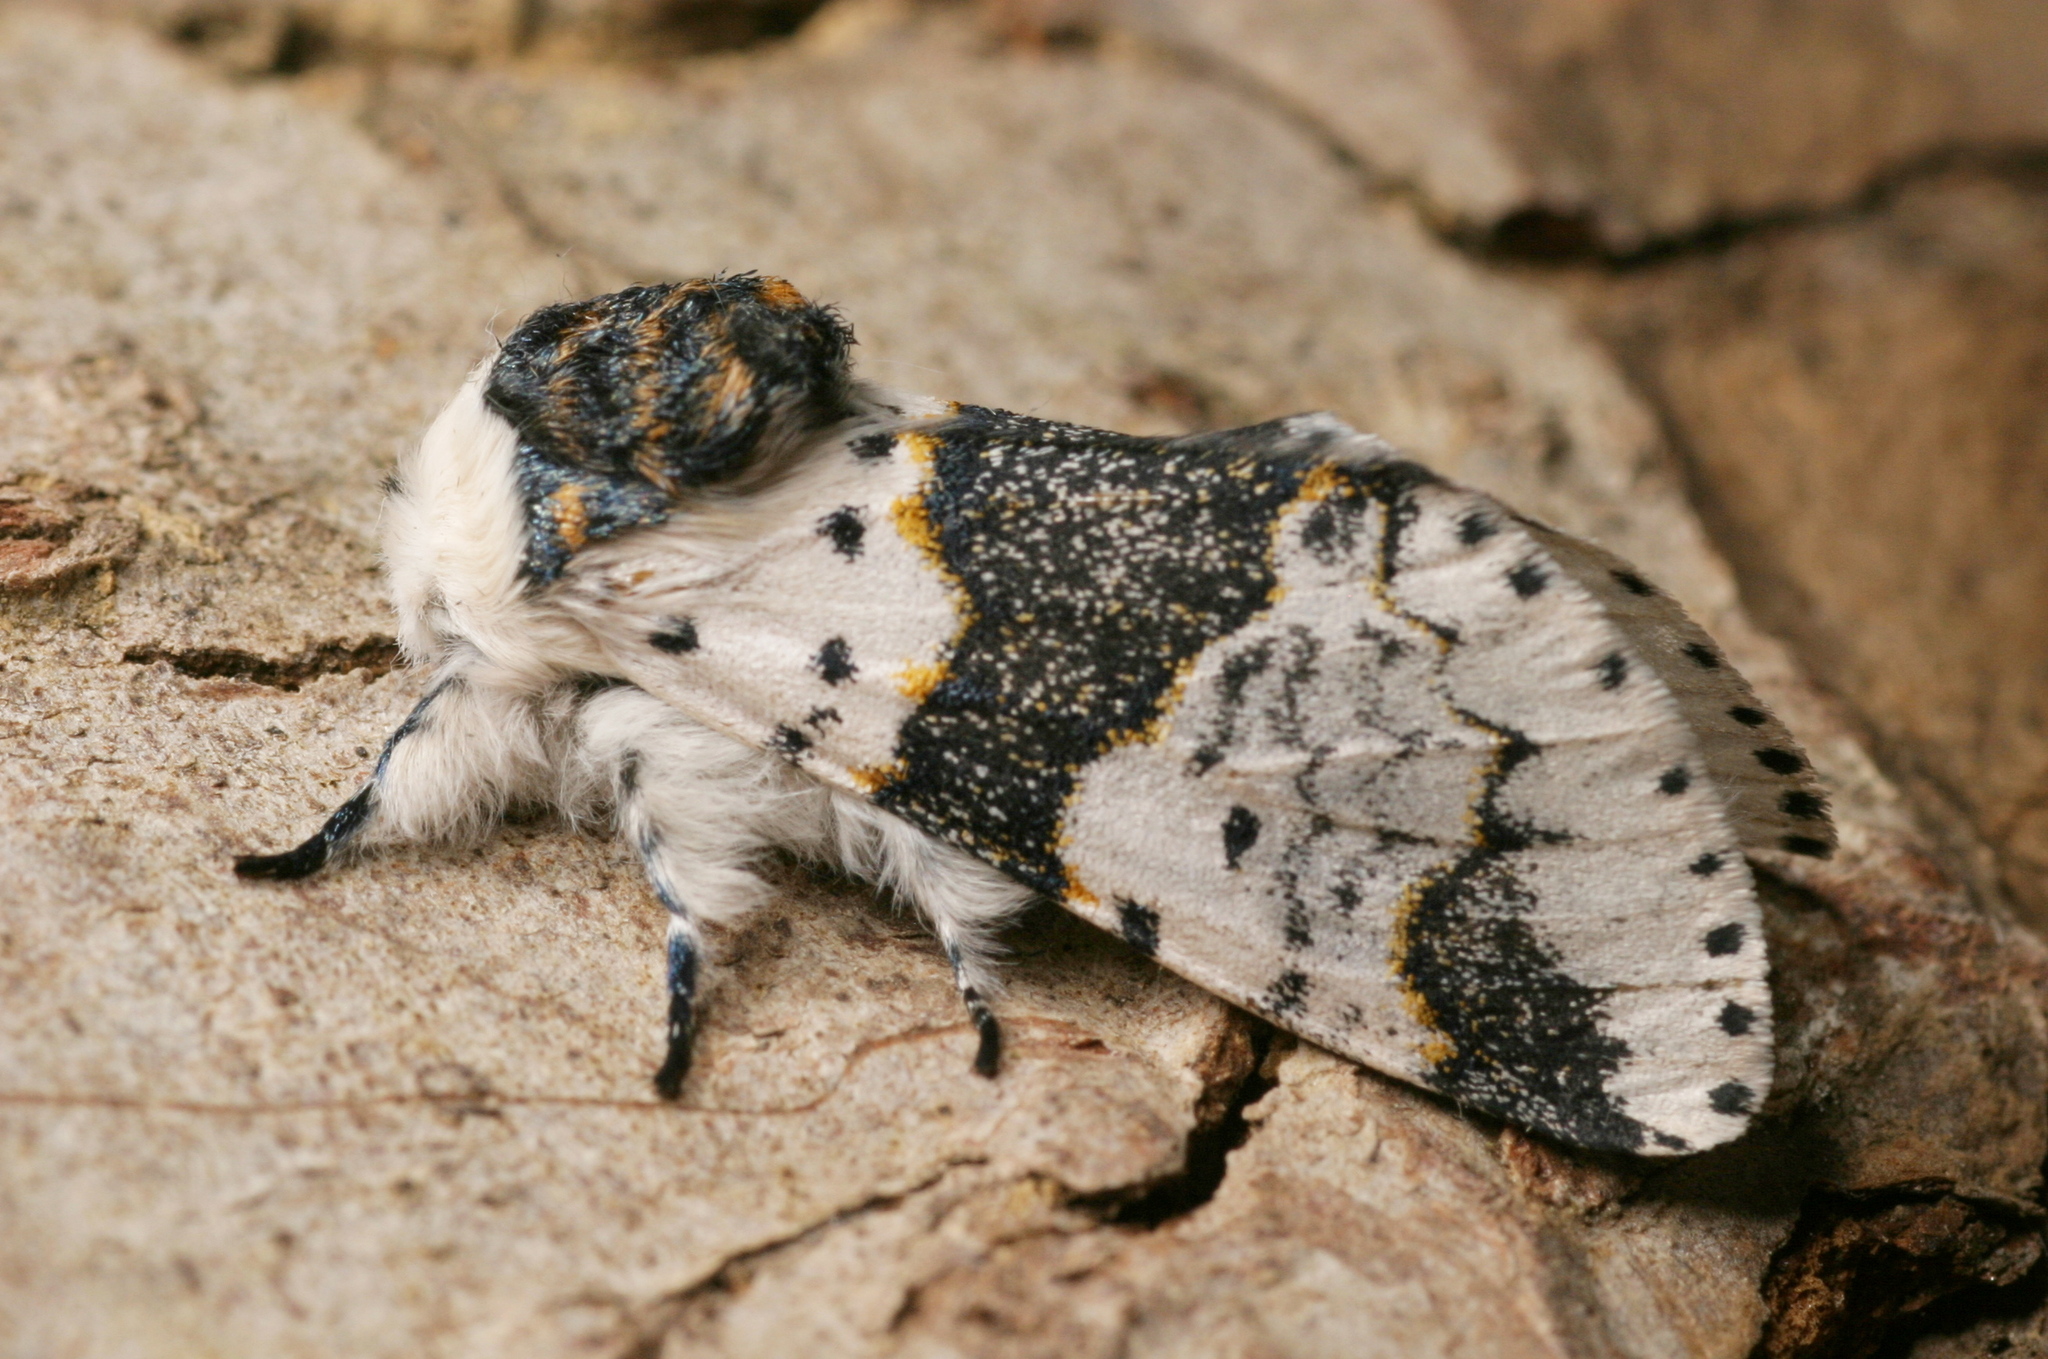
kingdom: Animalia
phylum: Arthropoda
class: Insecta
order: Lepidoptera
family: Notodontidae
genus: Furcula
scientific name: Furcula bicuspis
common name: Alder kitten
